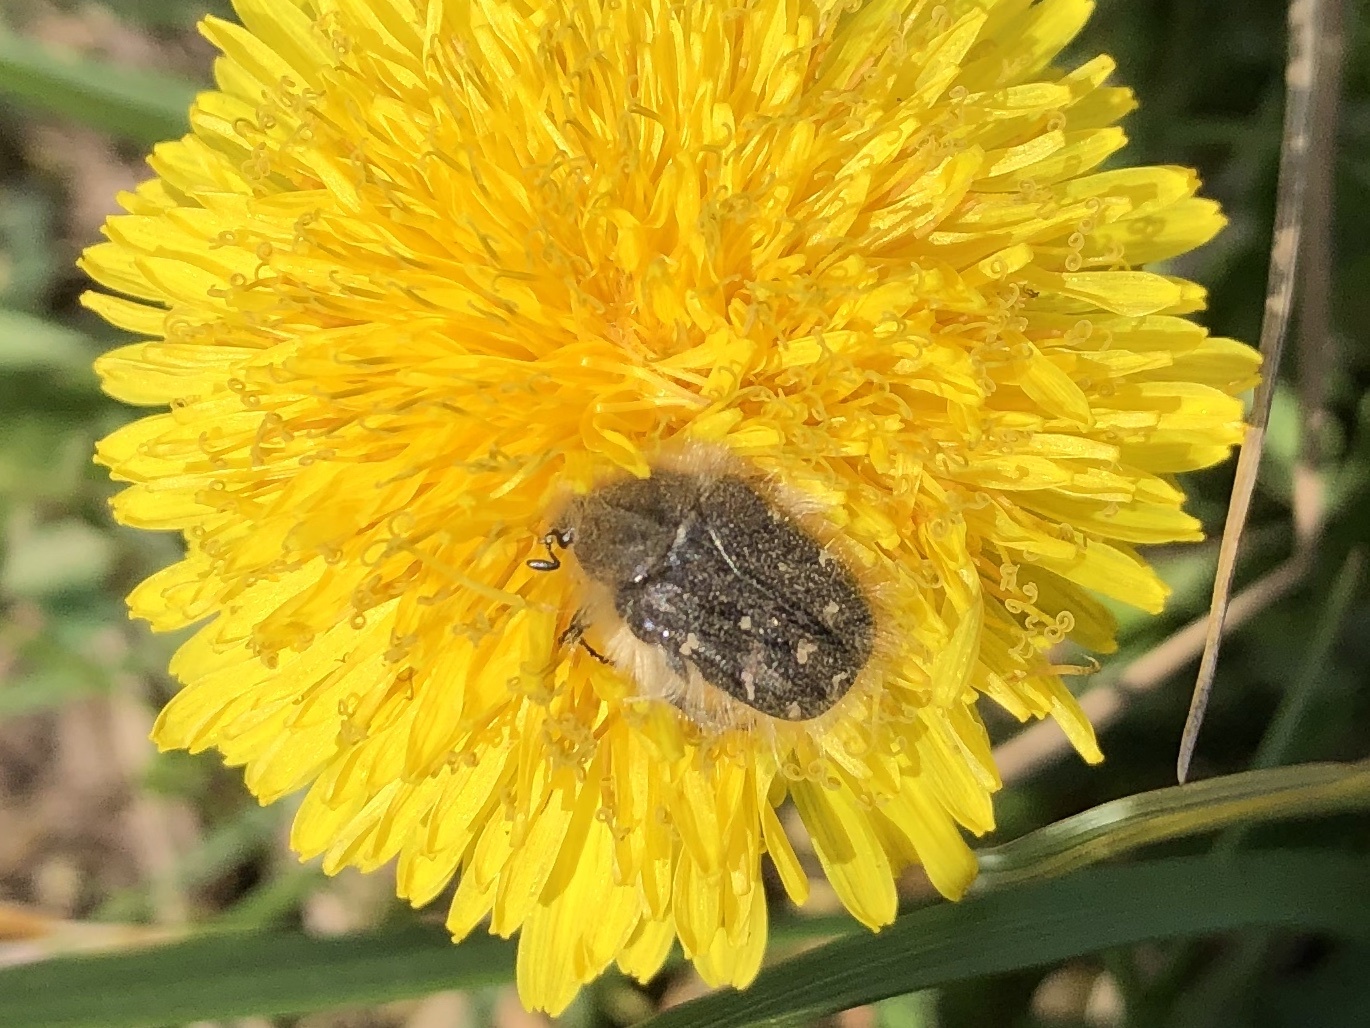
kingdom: Animalia
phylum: Arthropoda
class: Insecta
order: Coleoptera
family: Scarabaeidae
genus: Tropinota
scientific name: Tropinota hirta
